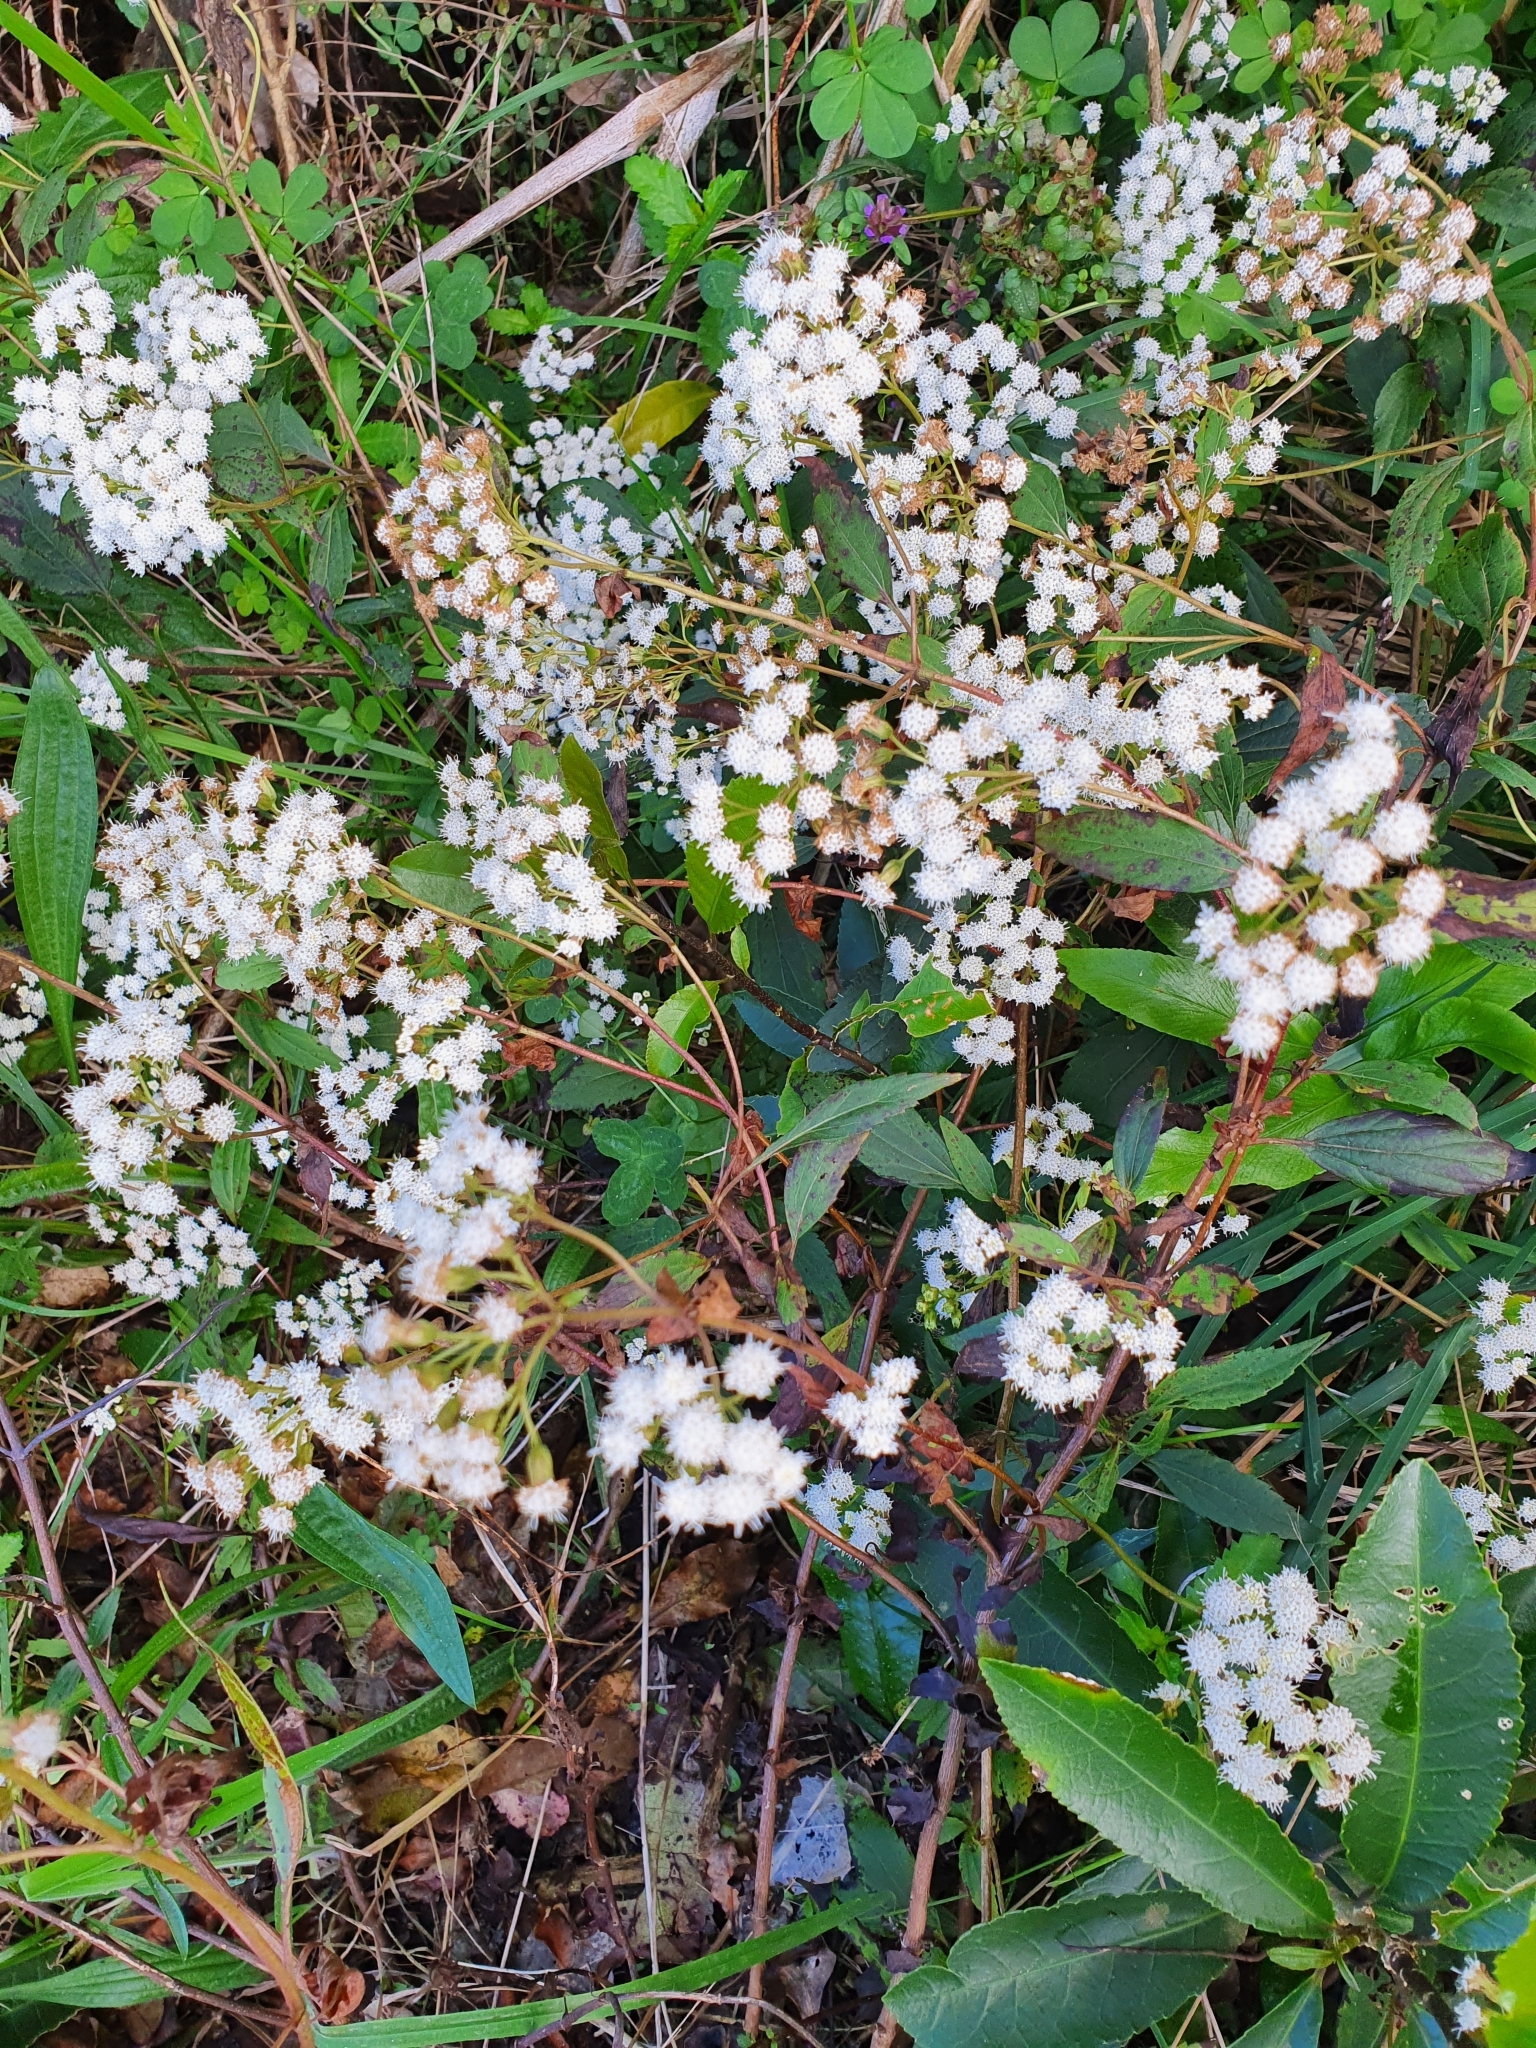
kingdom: Plantae
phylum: Tracheophyta
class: Magnoliopsida
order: Asterales
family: Asteraceae
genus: Ageratina
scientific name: Ageratina riparia
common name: Creeping croftonweed
